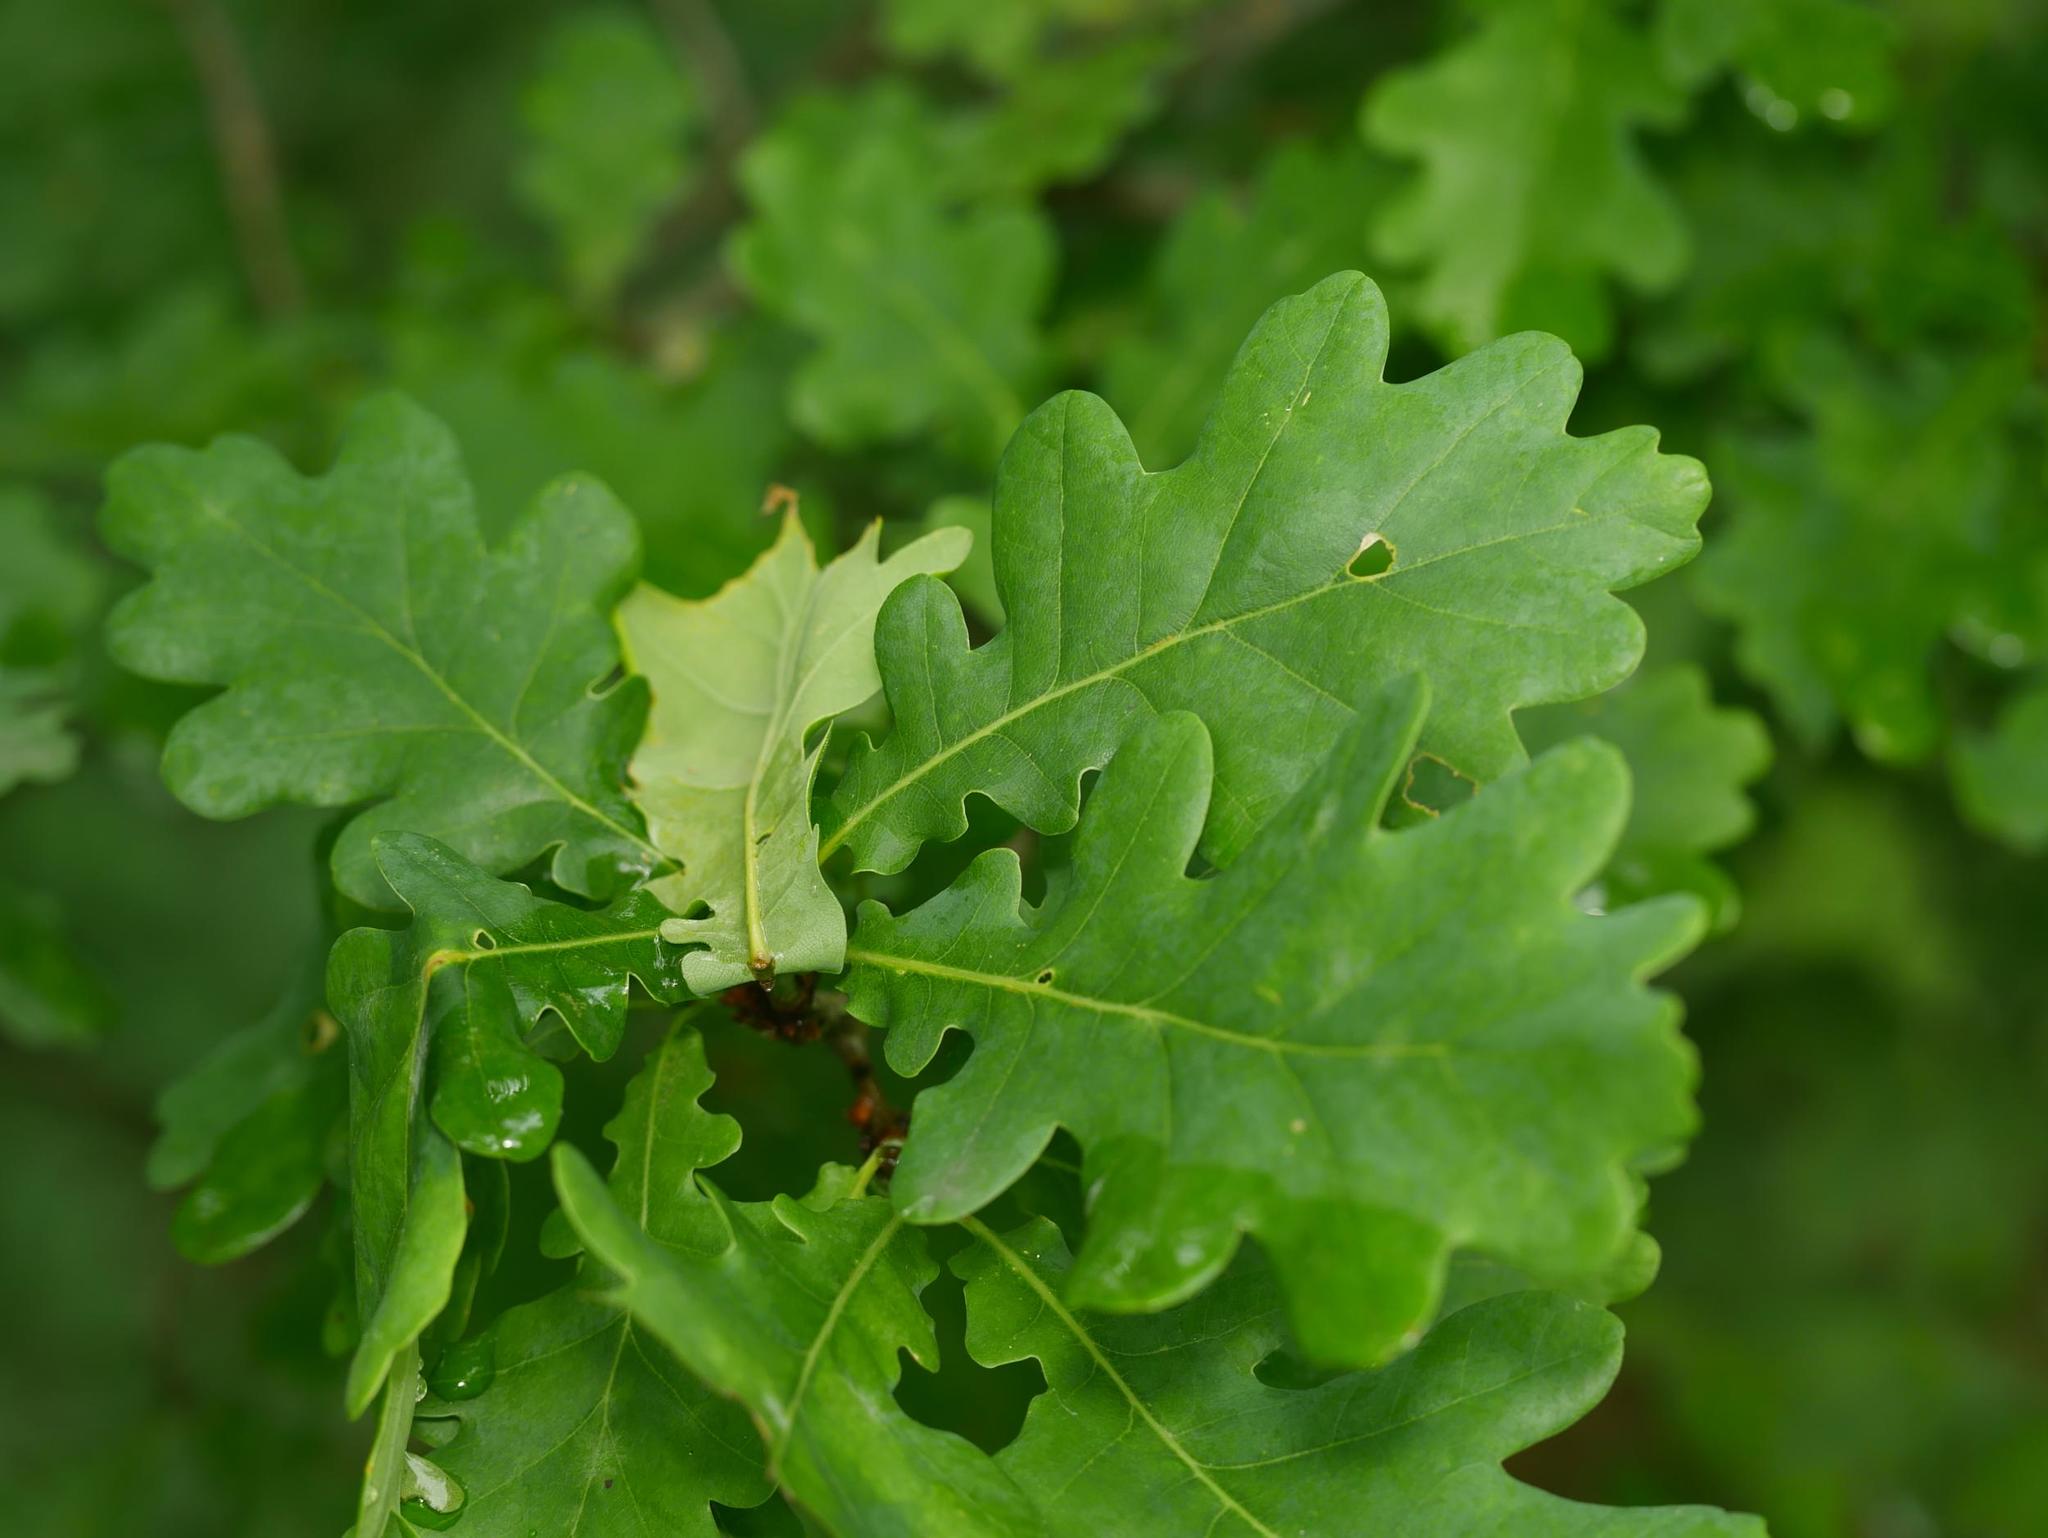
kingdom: Plantae
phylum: Tracheophyta
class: Magnoliopsida
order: Fagales
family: Fagaceae
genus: Quercus
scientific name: Quercus robur
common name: Pedunculate oak
